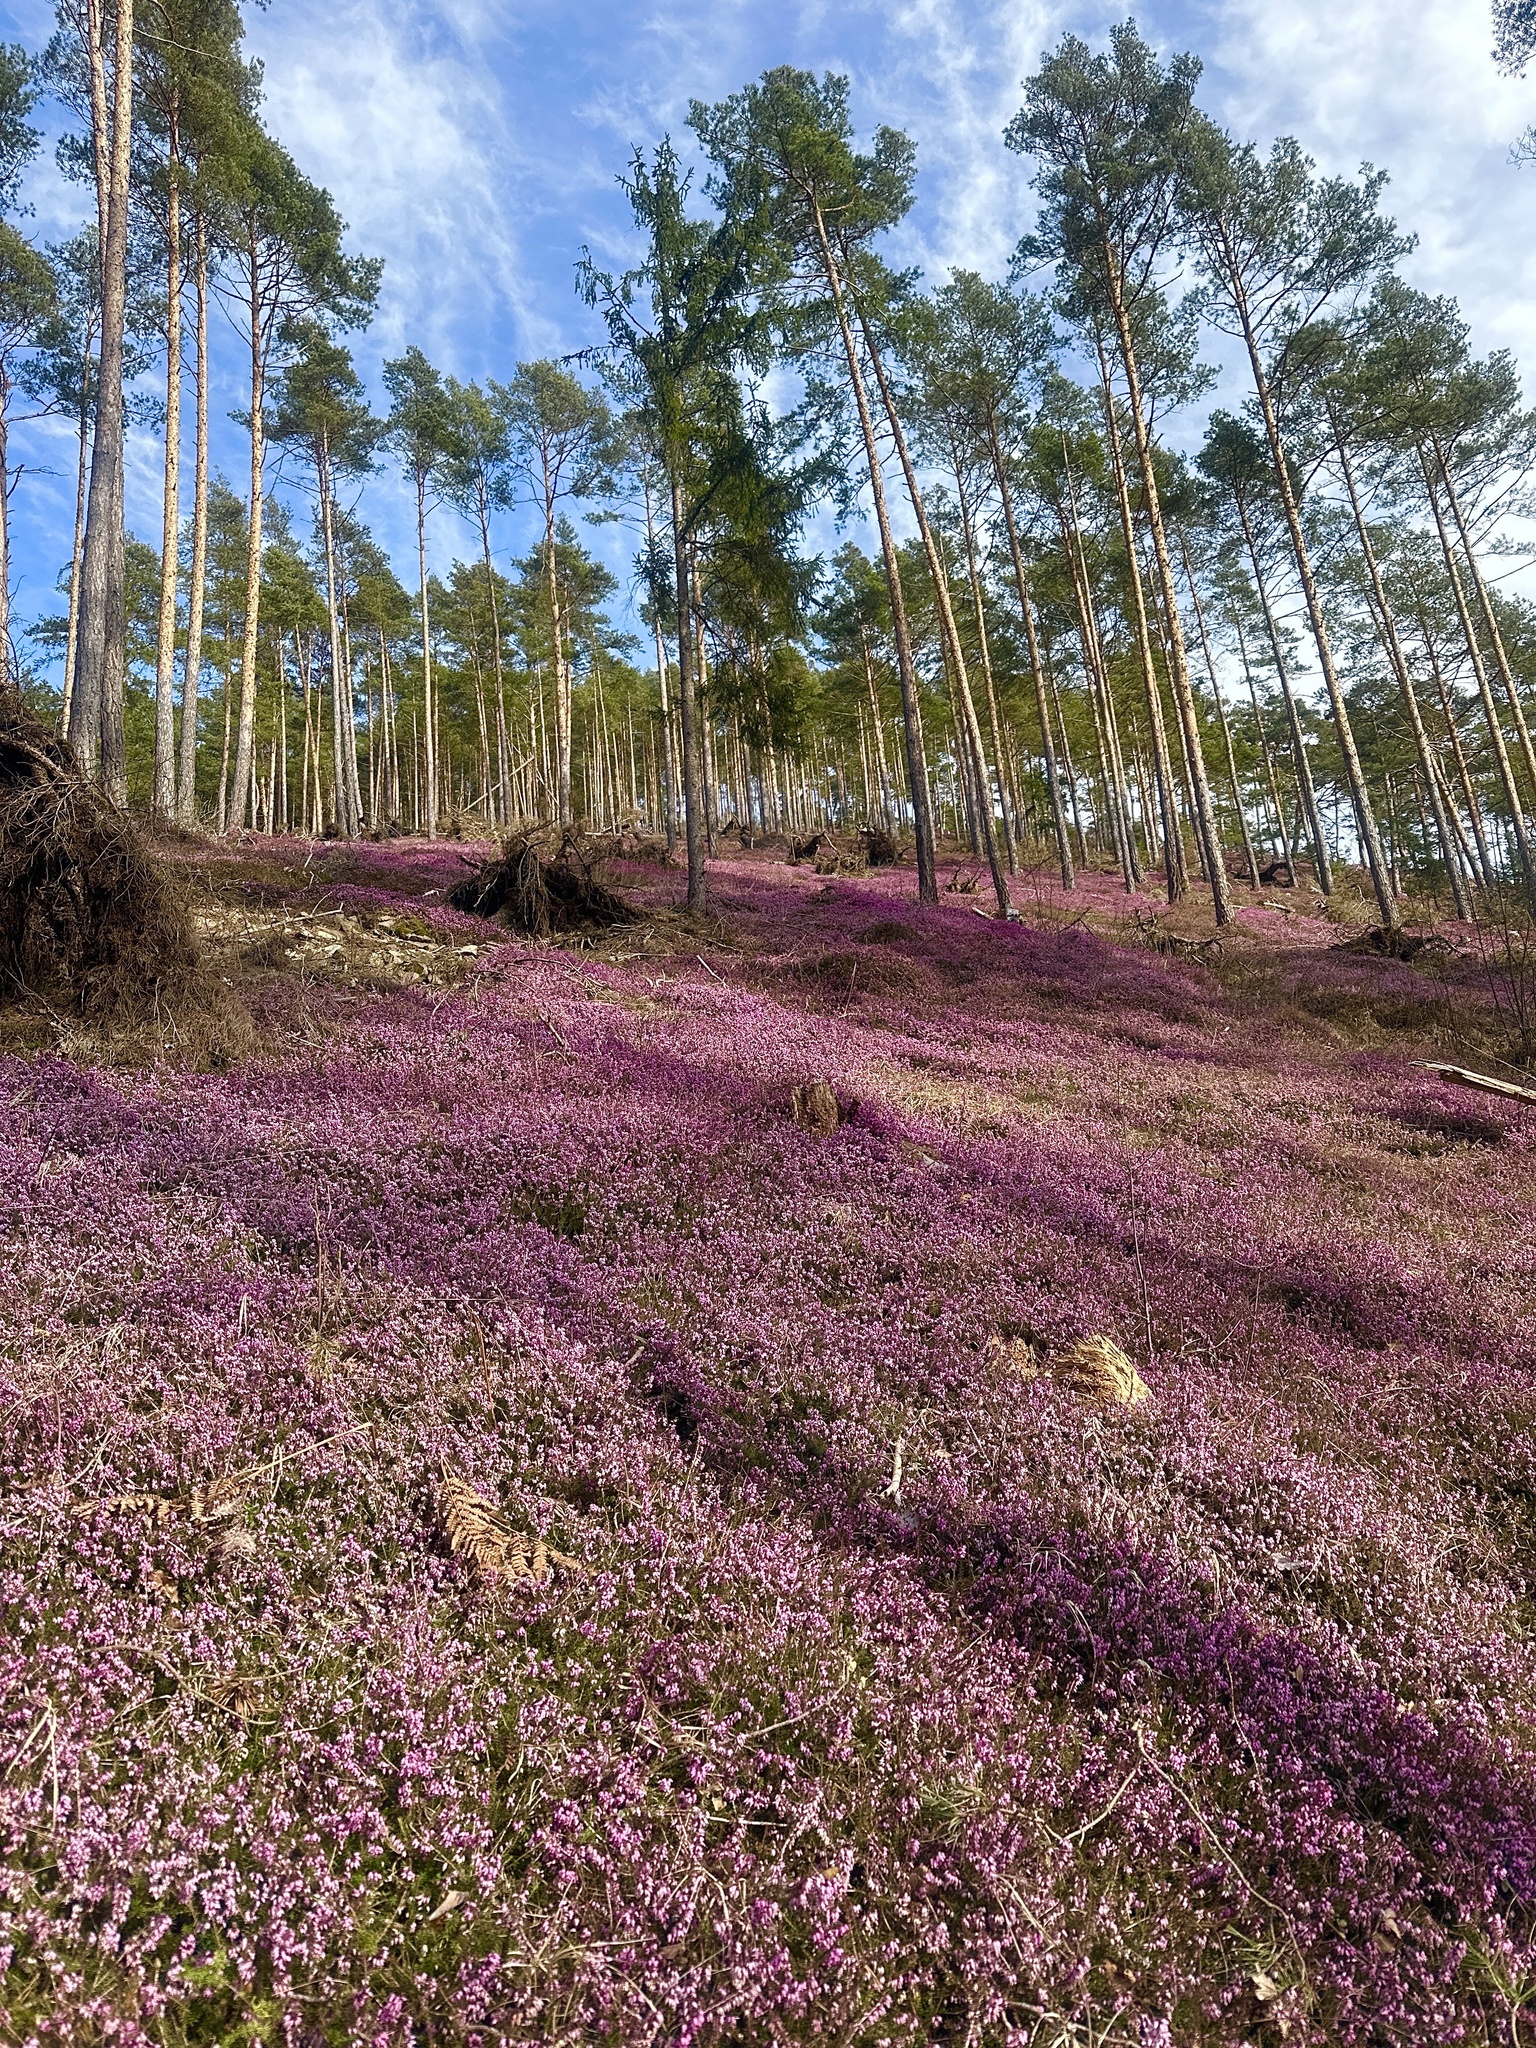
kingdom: Plantae
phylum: Tracheophyta
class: Magnoliopsida
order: Ericales
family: Ericaceae
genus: Erica
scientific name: Erica carnea
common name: Winter heath
